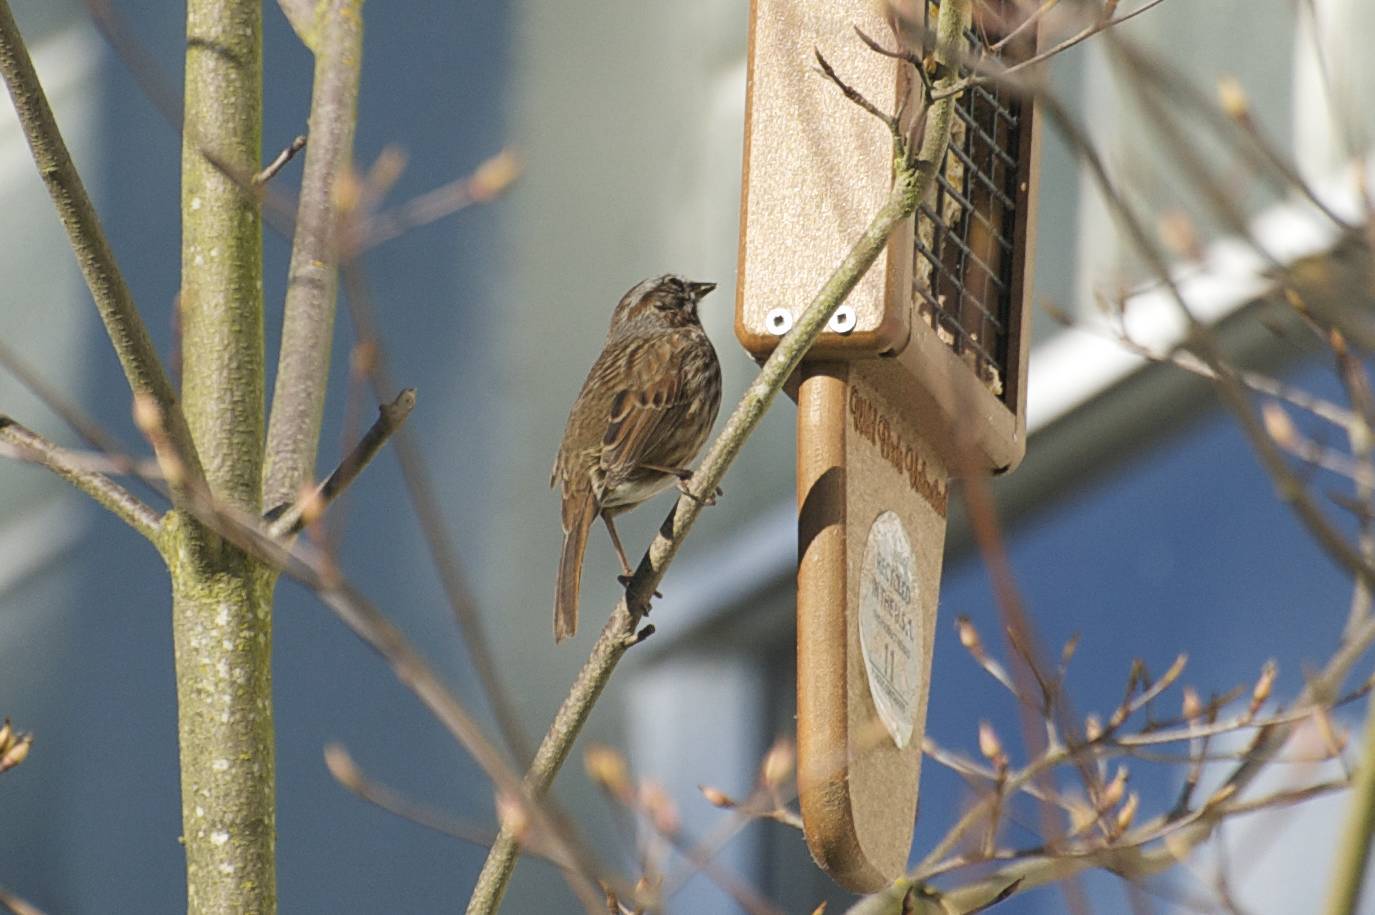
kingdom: Animalia
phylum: Chordata
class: Aves
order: Passeriformes
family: Passerellidae
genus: Melospiza
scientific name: Melospiza melodia
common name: Song sparrow
